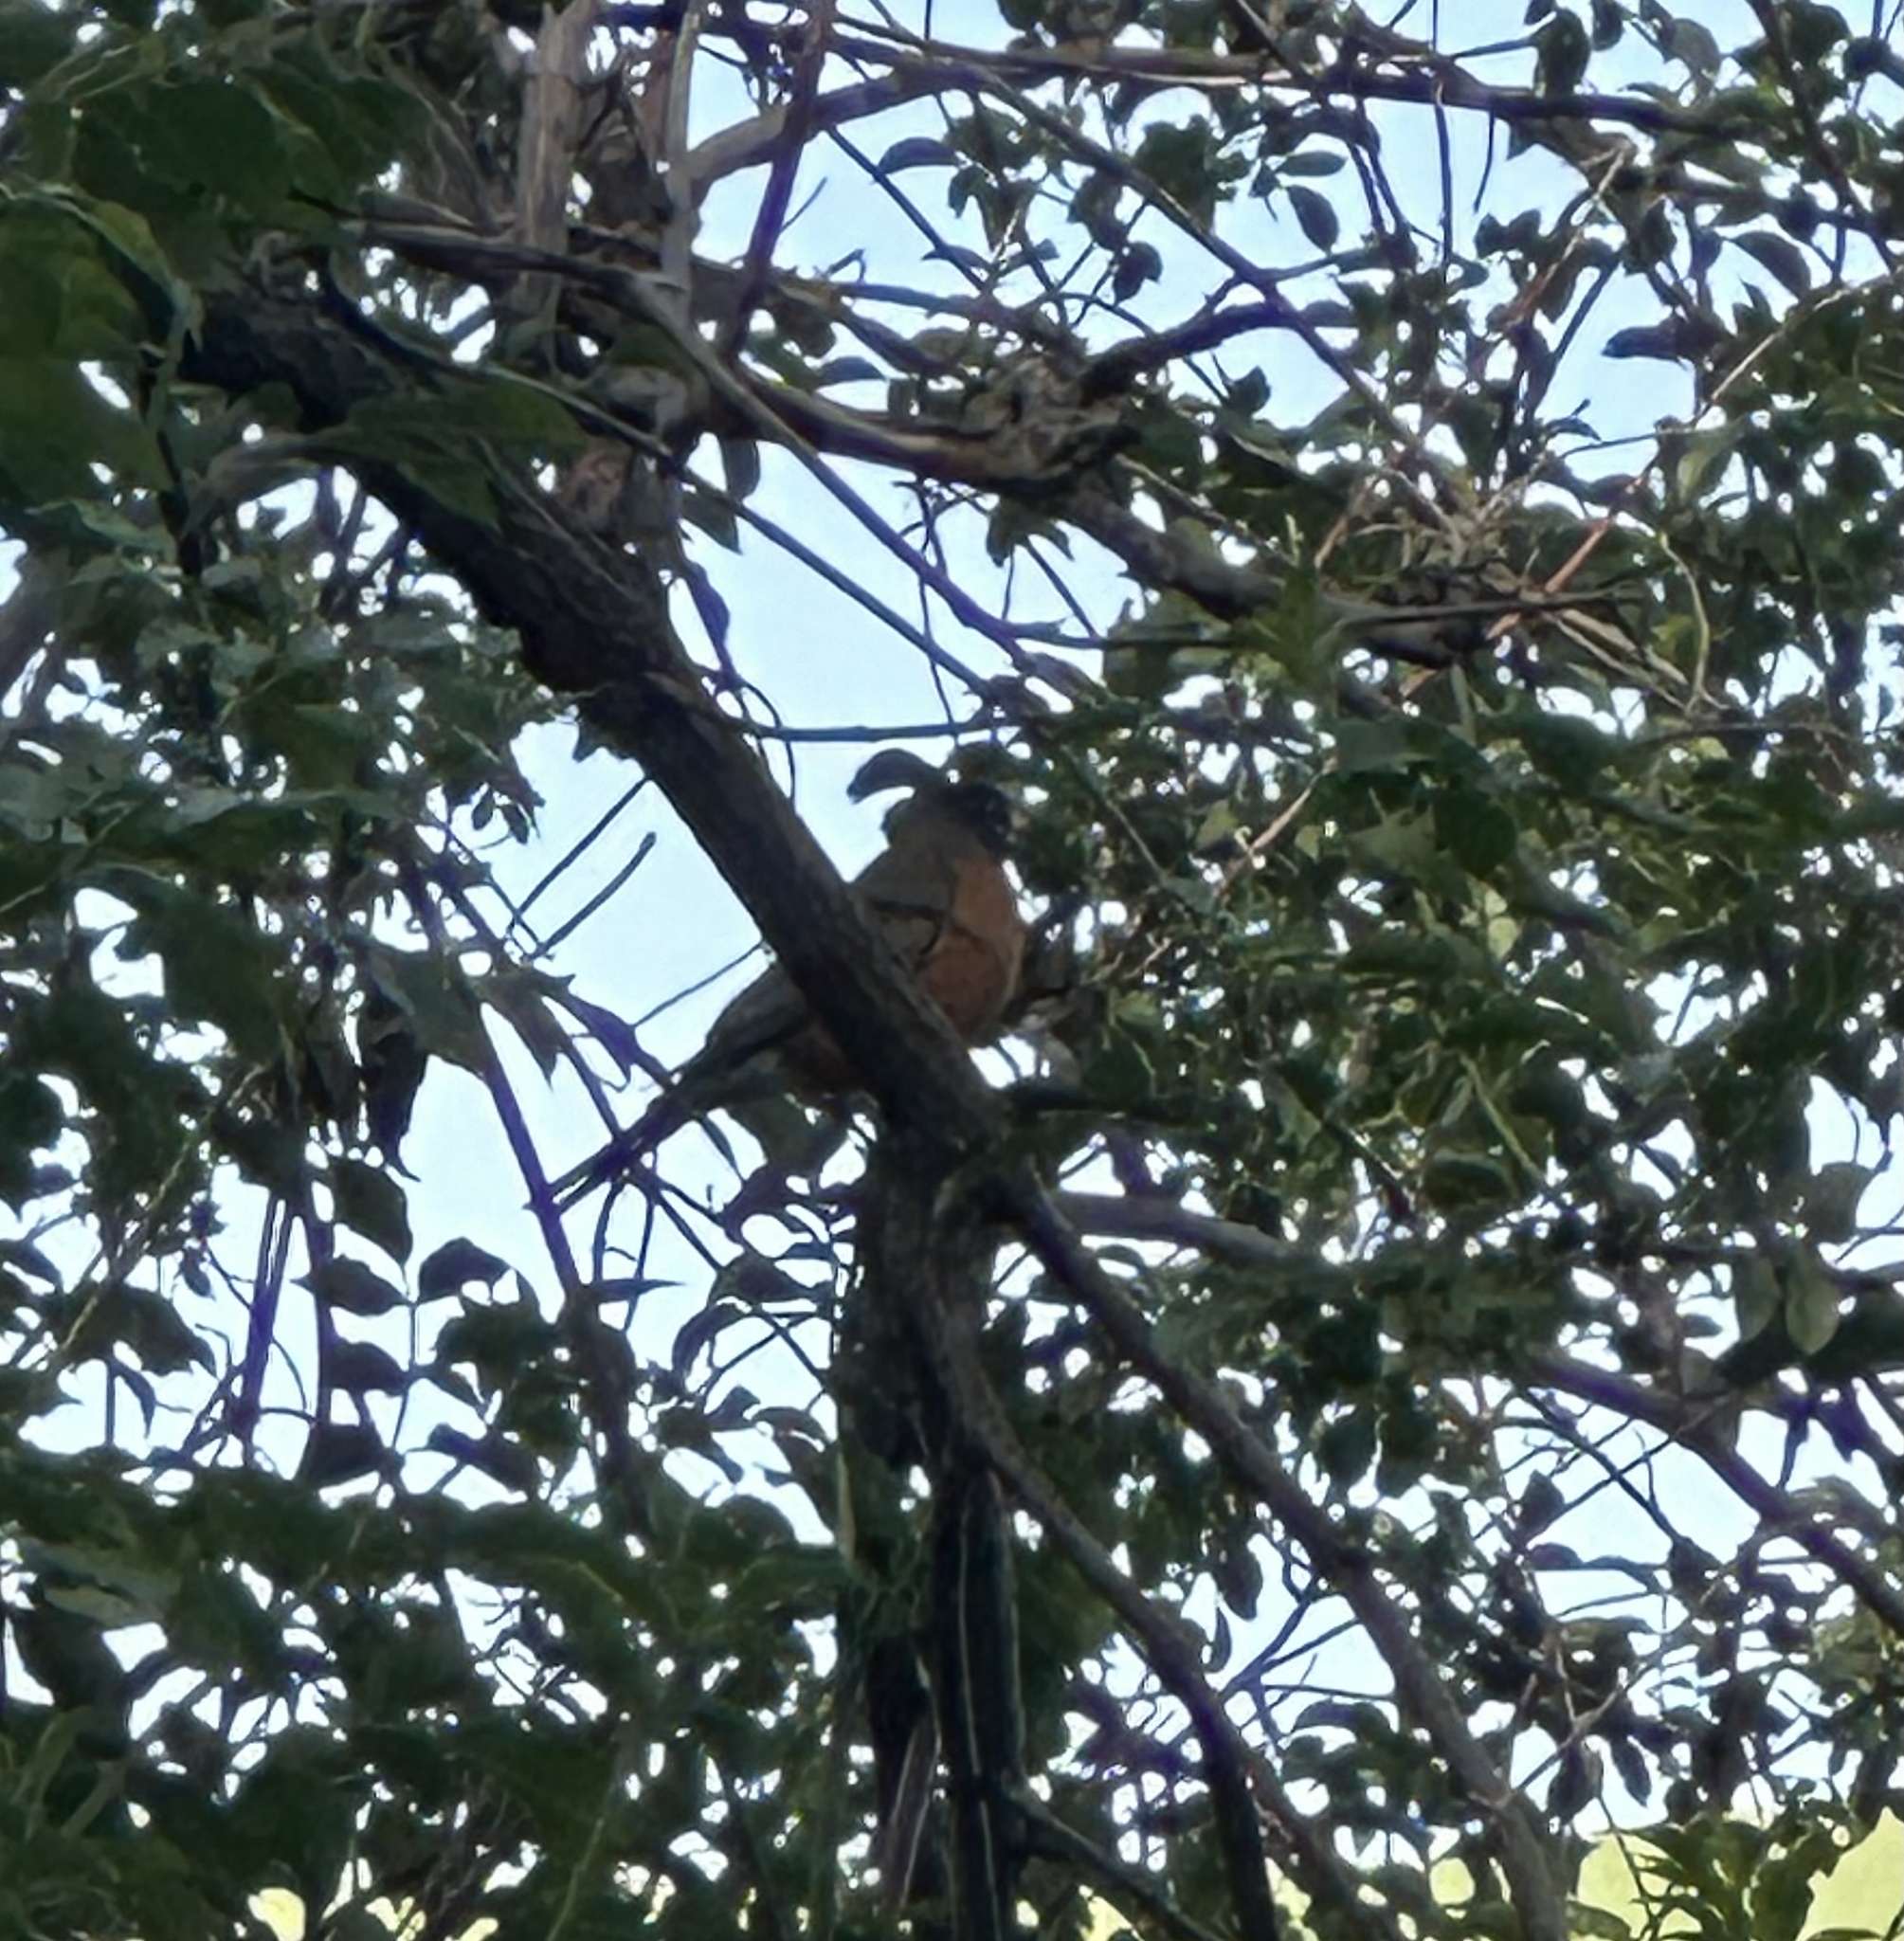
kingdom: Animalia
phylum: Chordata
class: Aves
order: Passeriformes
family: Turdidae
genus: Turdus
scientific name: Turdus migratorius
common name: American robin
